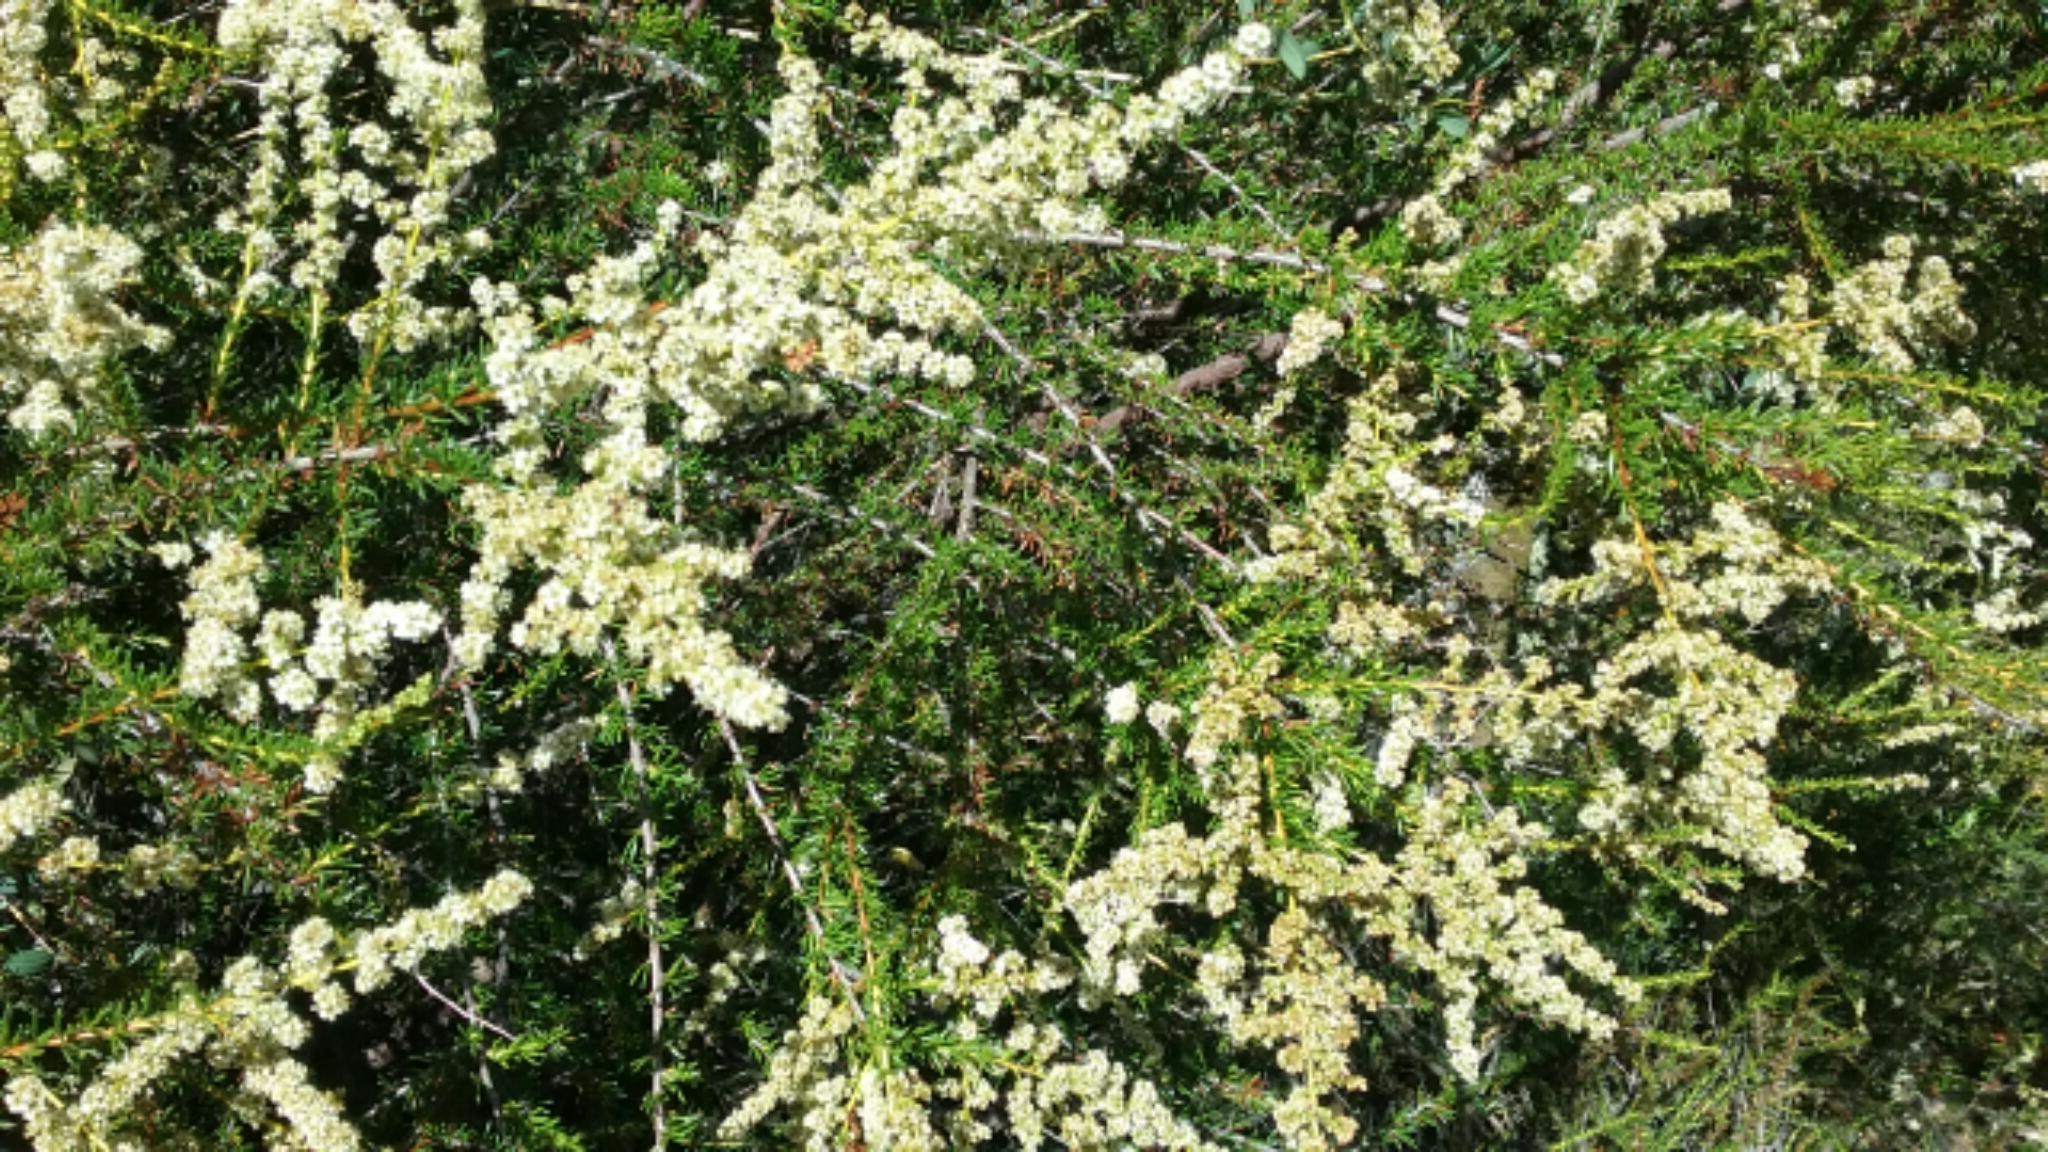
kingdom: Plantae
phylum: Tracheophyta
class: Magnoliopsida
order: Rosales
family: Rosaceae
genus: Adenostoma
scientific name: Adenostoma fasciculatum
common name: Chamise
